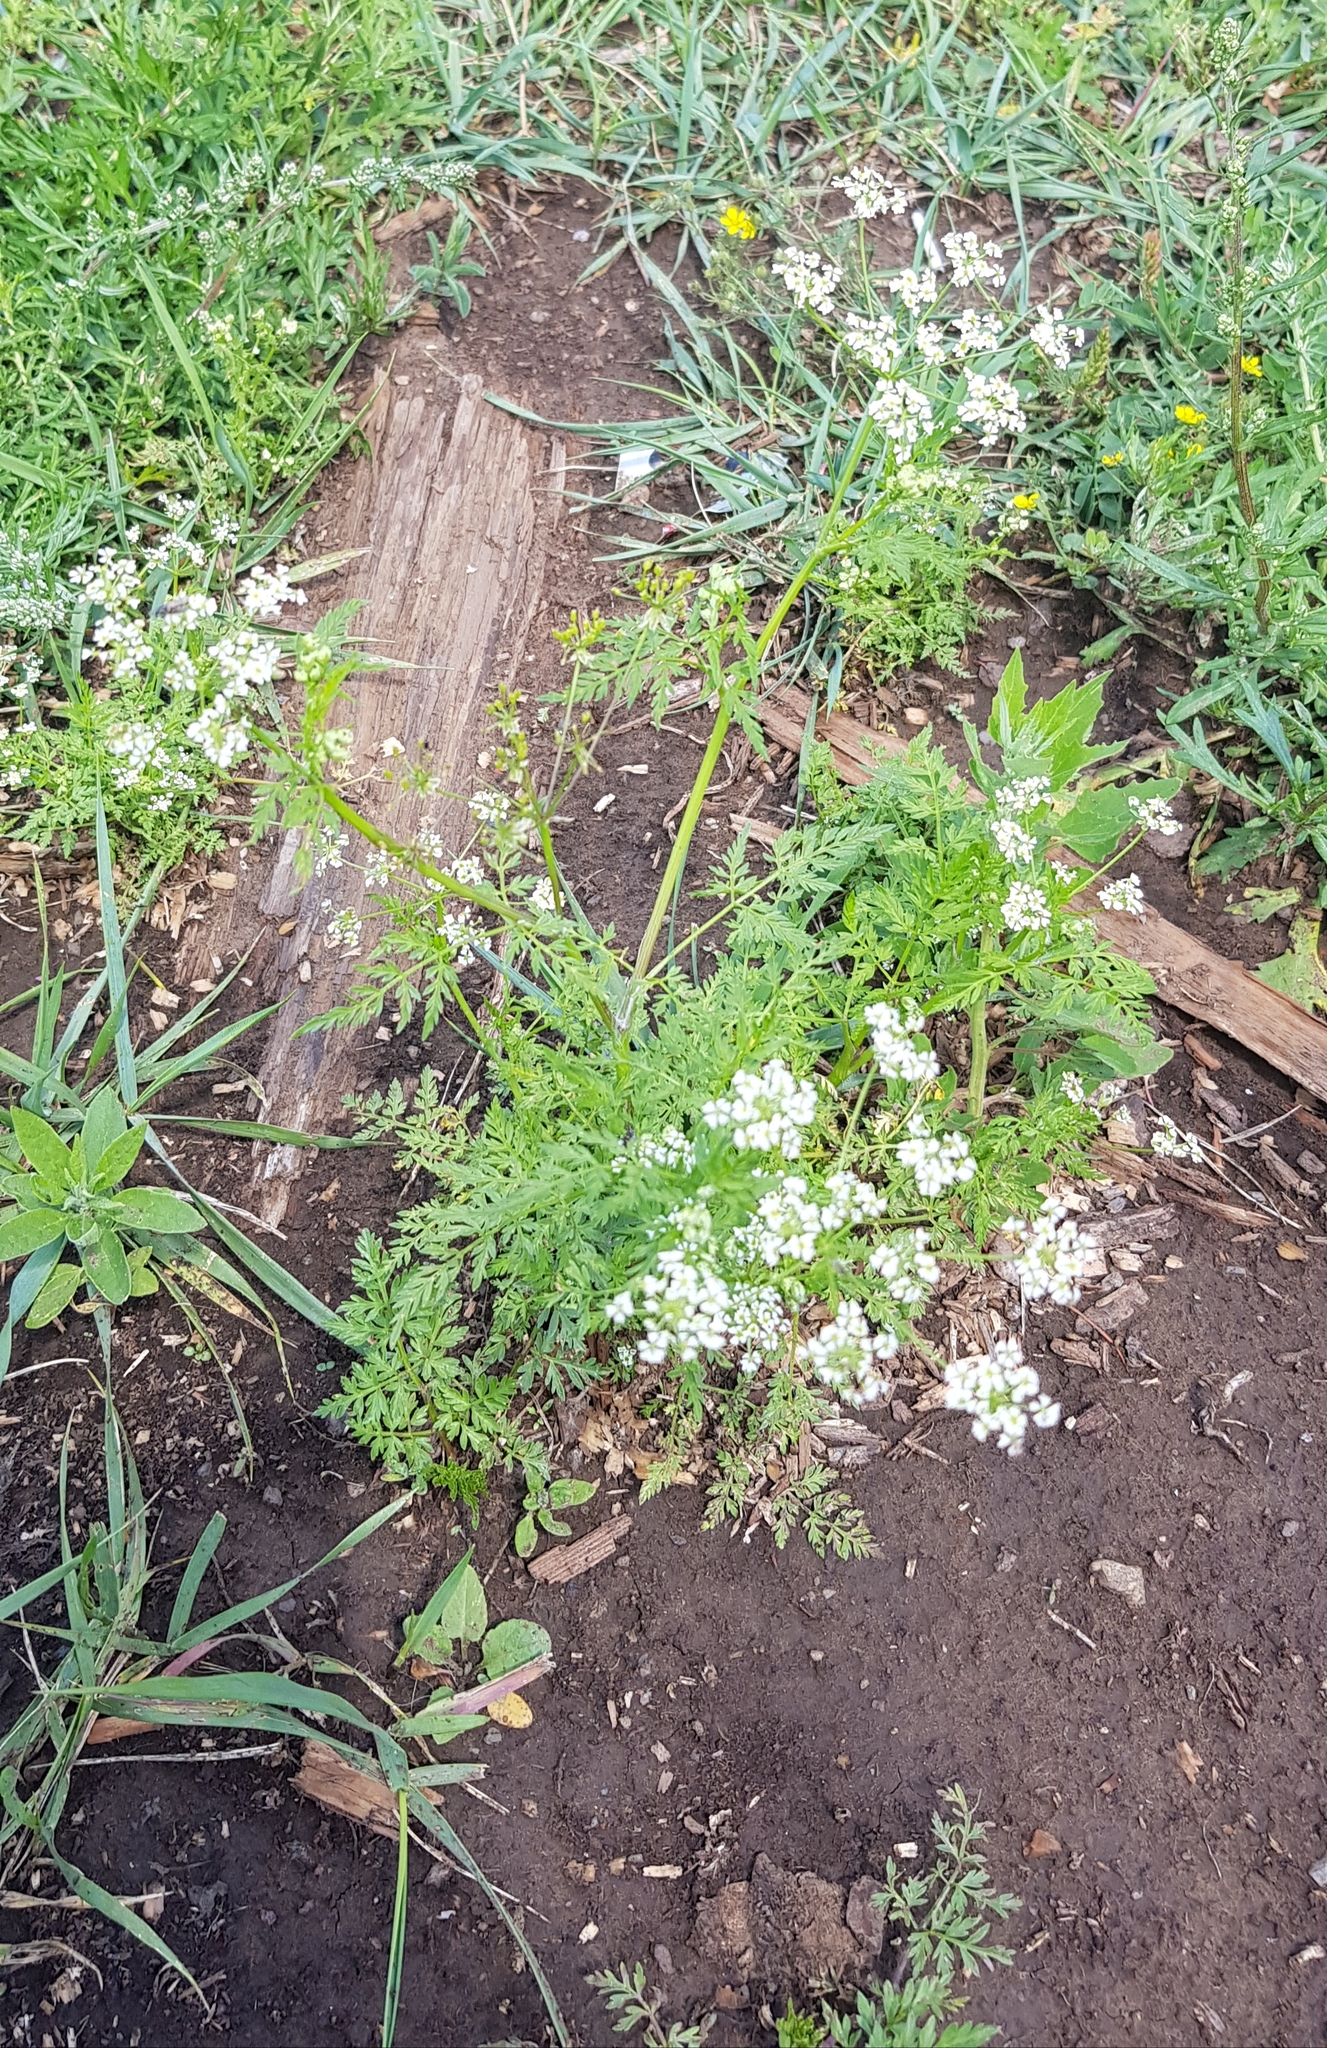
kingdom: Plantae
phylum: Tracheophyta
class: Magnoliopsida
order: Apiales
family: Apiaceae
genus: Sphallerocarpus
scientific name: Sphallerocarpus gracilis
